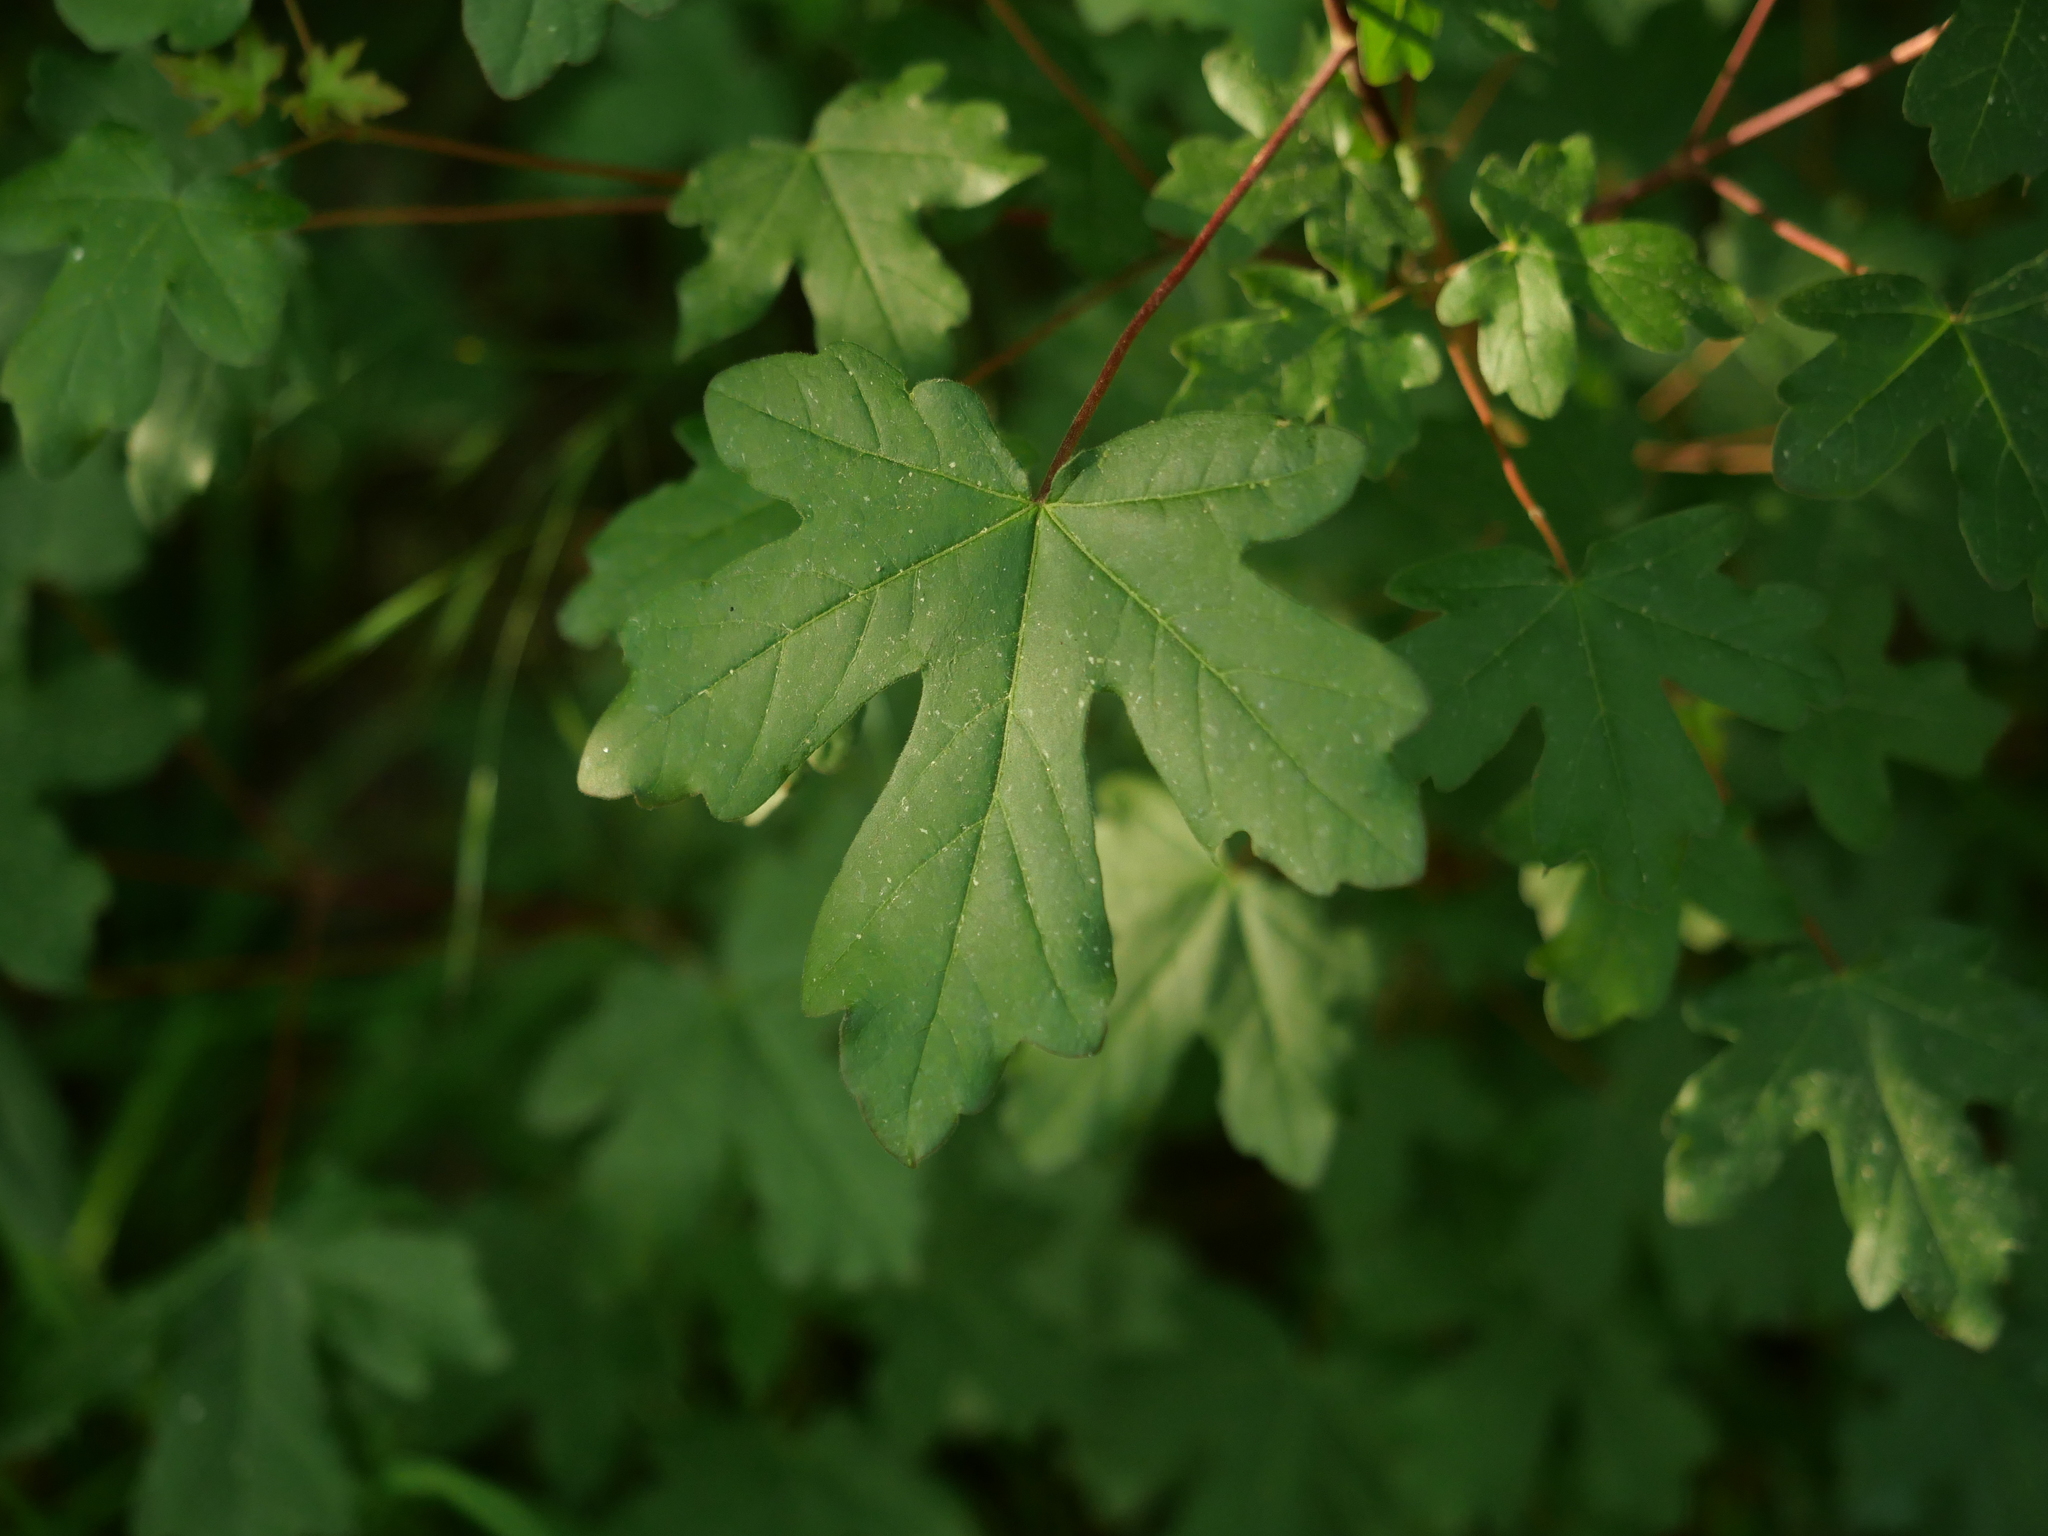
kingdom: Plantae
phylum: Tracheophyta
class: Magnoliopsida
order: Sapindales
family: Sapindaceae
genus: Acer
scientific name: Acer campestre
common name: Field maple
